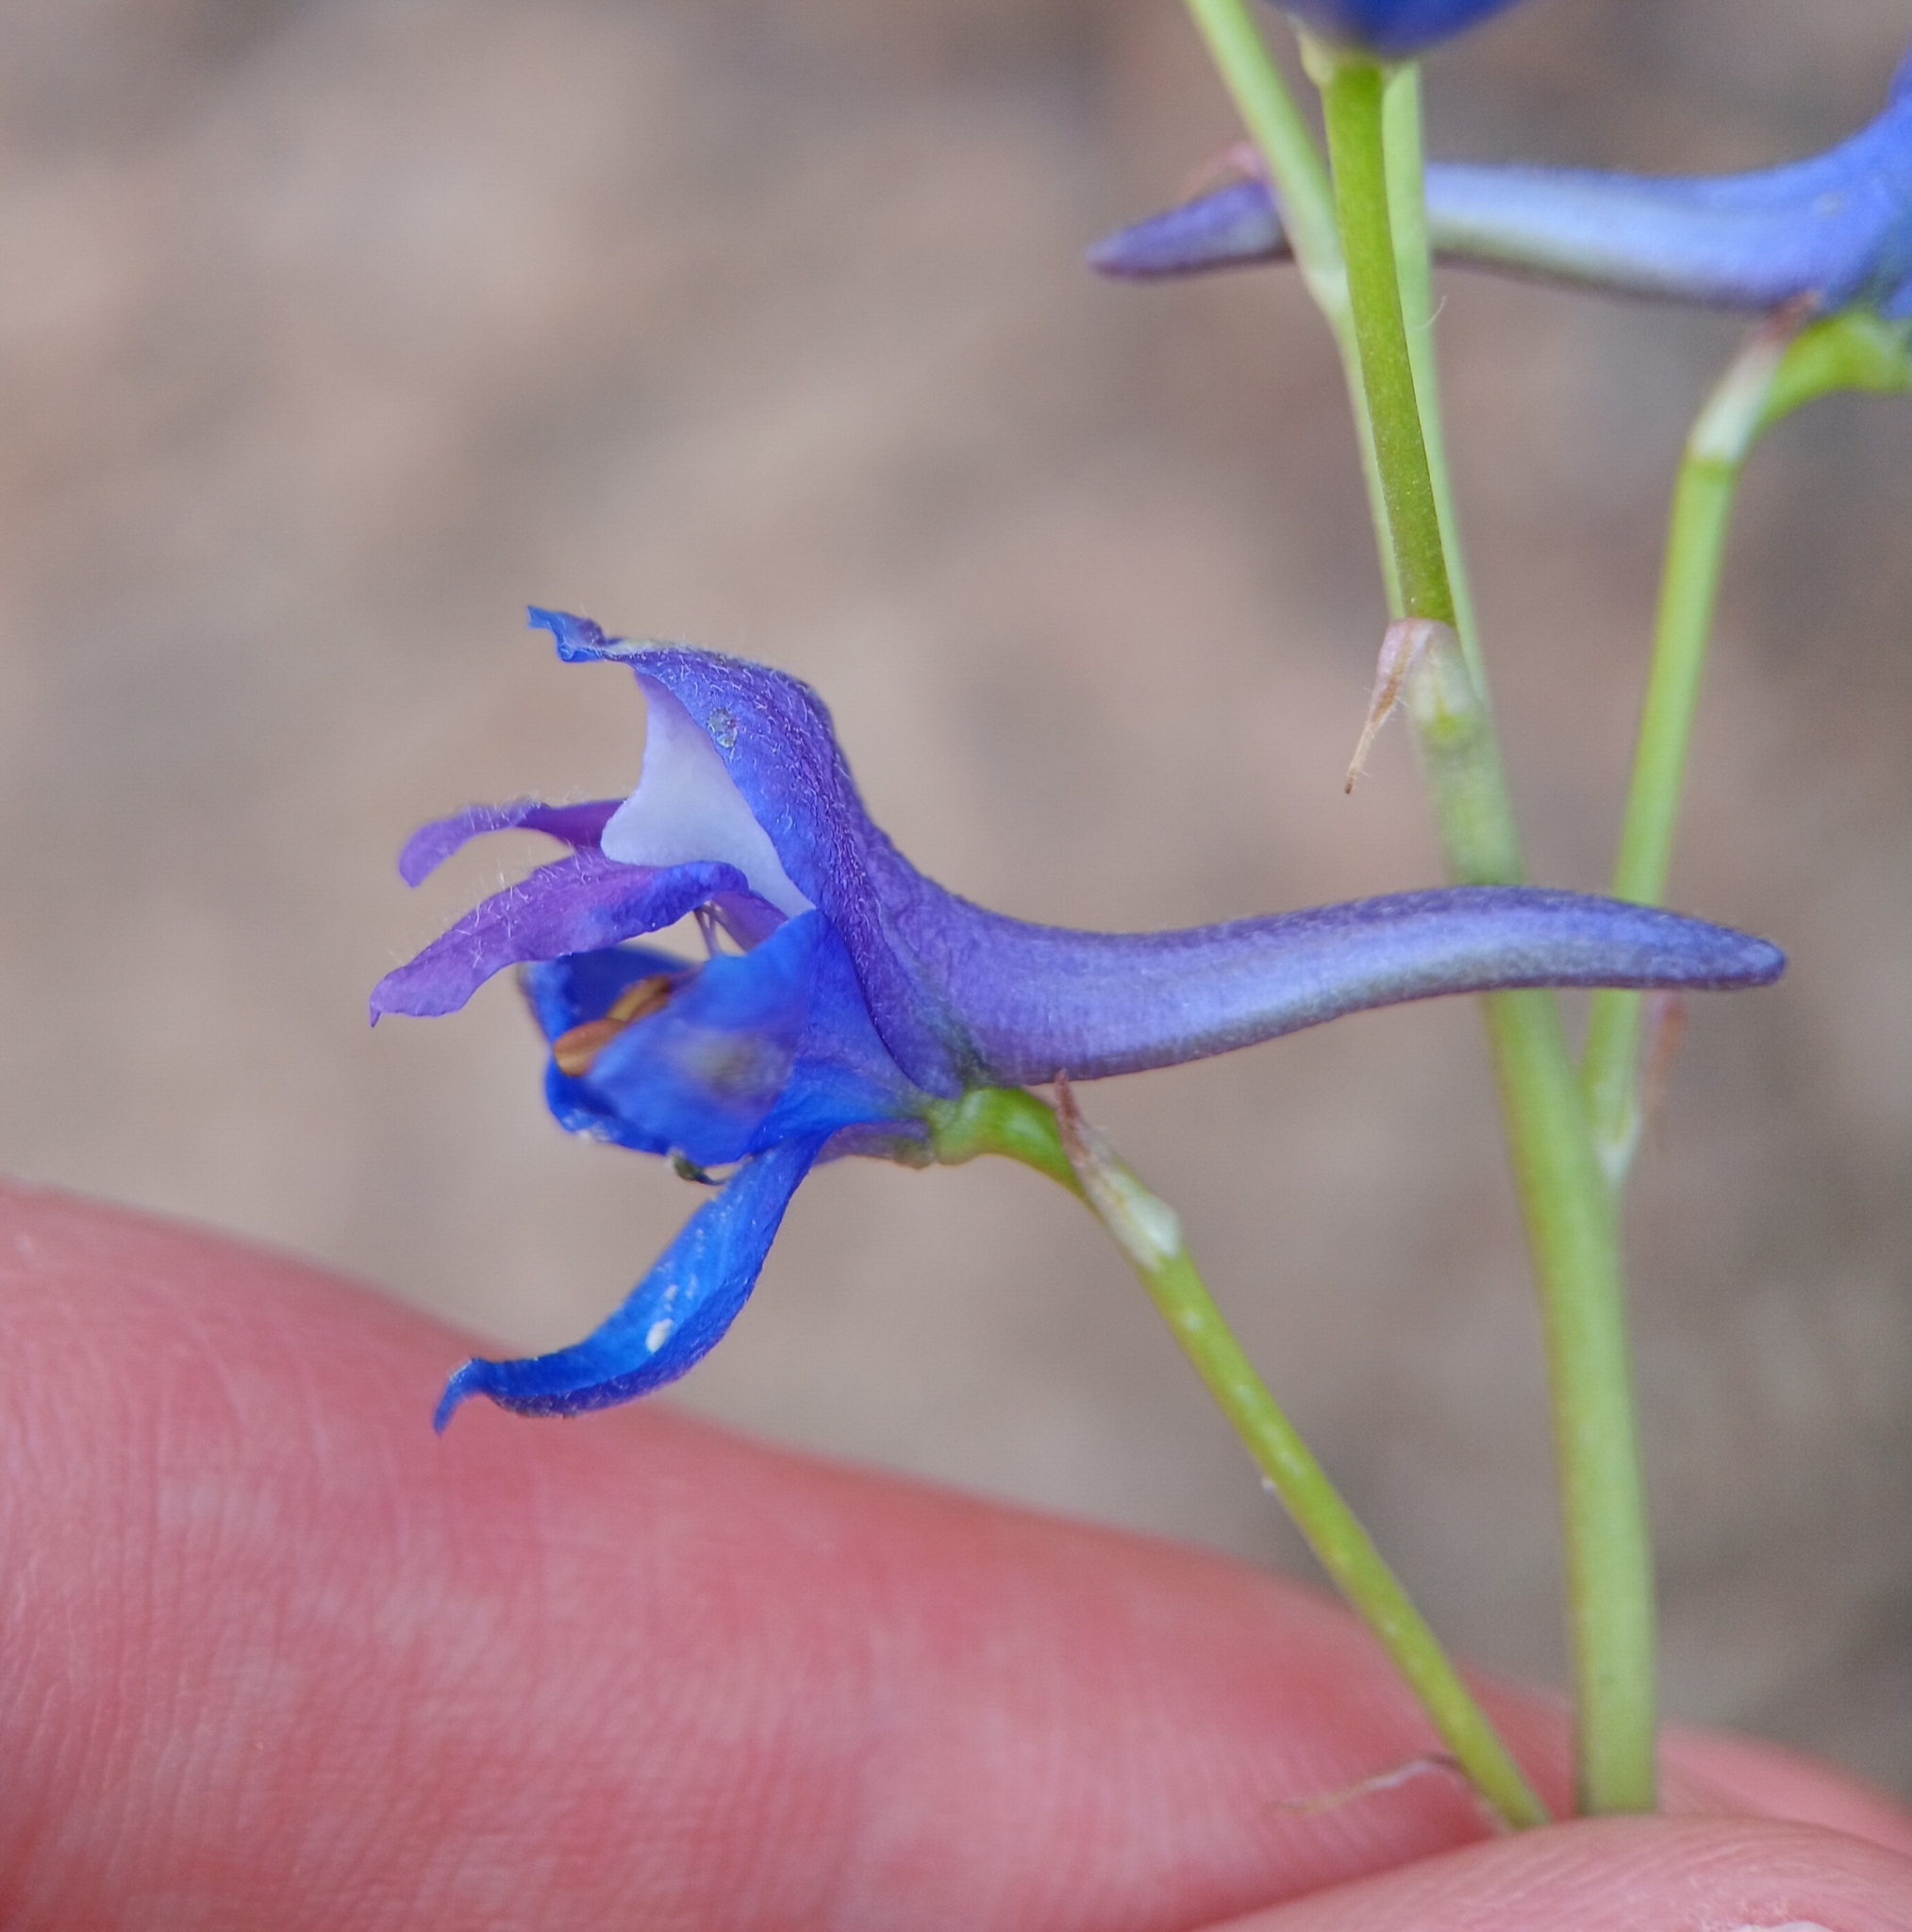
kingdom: Plantae
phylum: Tracheophyta
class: Magnoliopsida
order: Ranunculales
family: Ranunculaceae
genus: Delphinium
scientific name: Delphinium scaposum
